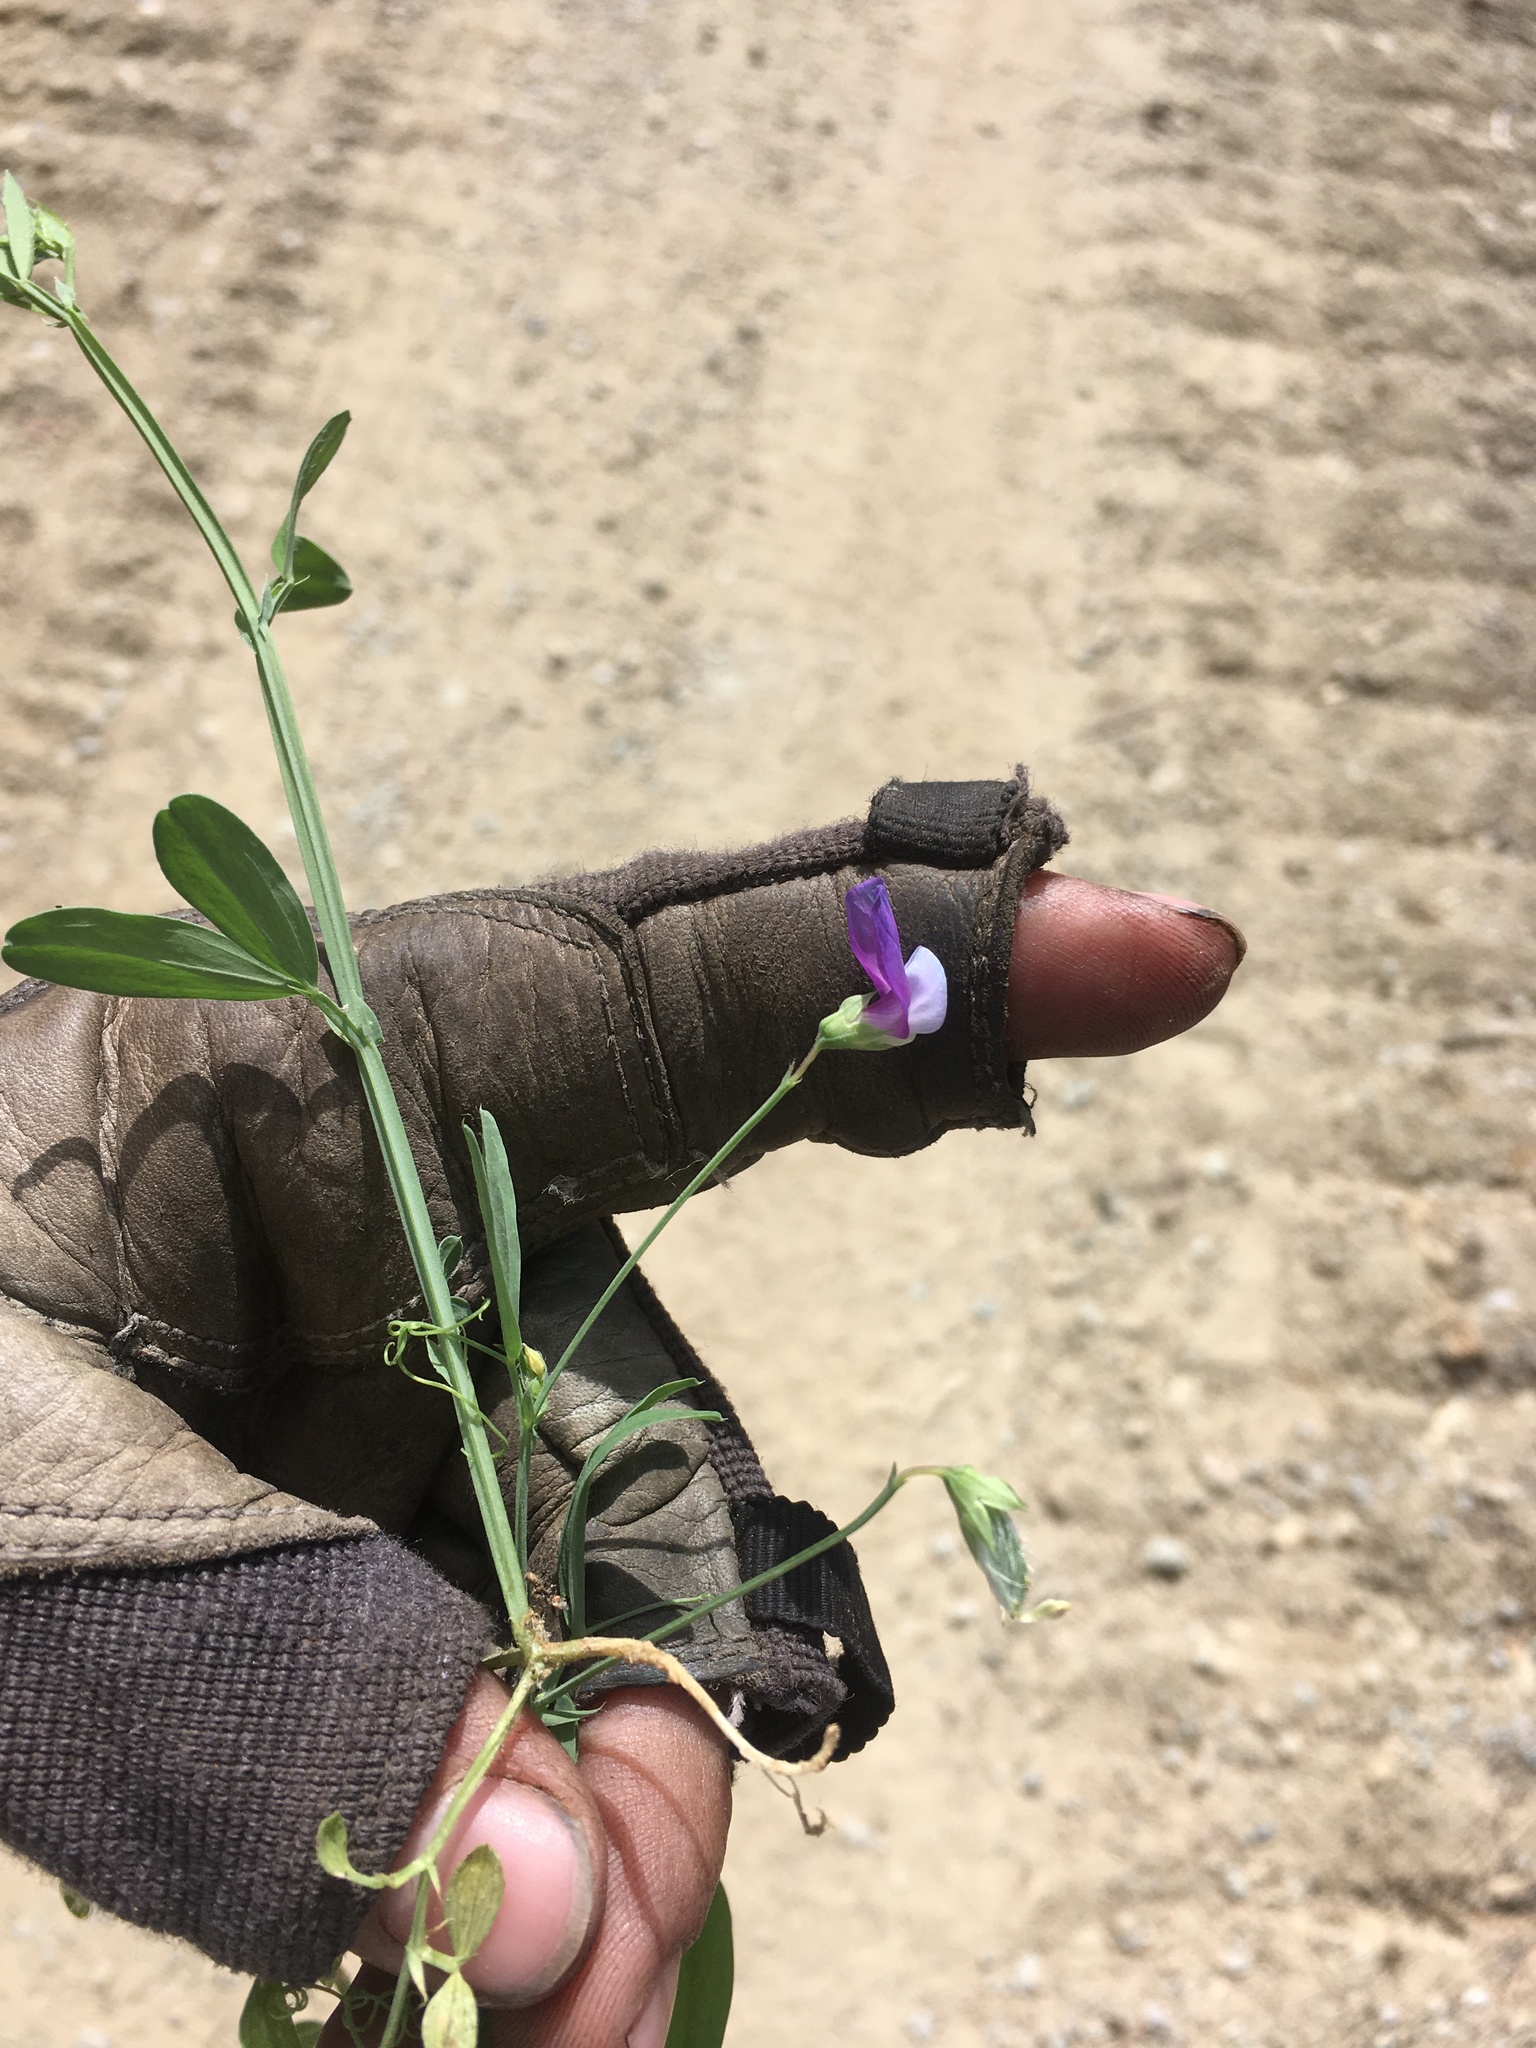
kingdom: Plantae
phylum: Tracheophyta
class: Magnoliopsida
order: Fabales
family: Fabaceae
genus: Lathyrus
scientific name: Lathyrus hirsutus
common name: Hairy vetchling
